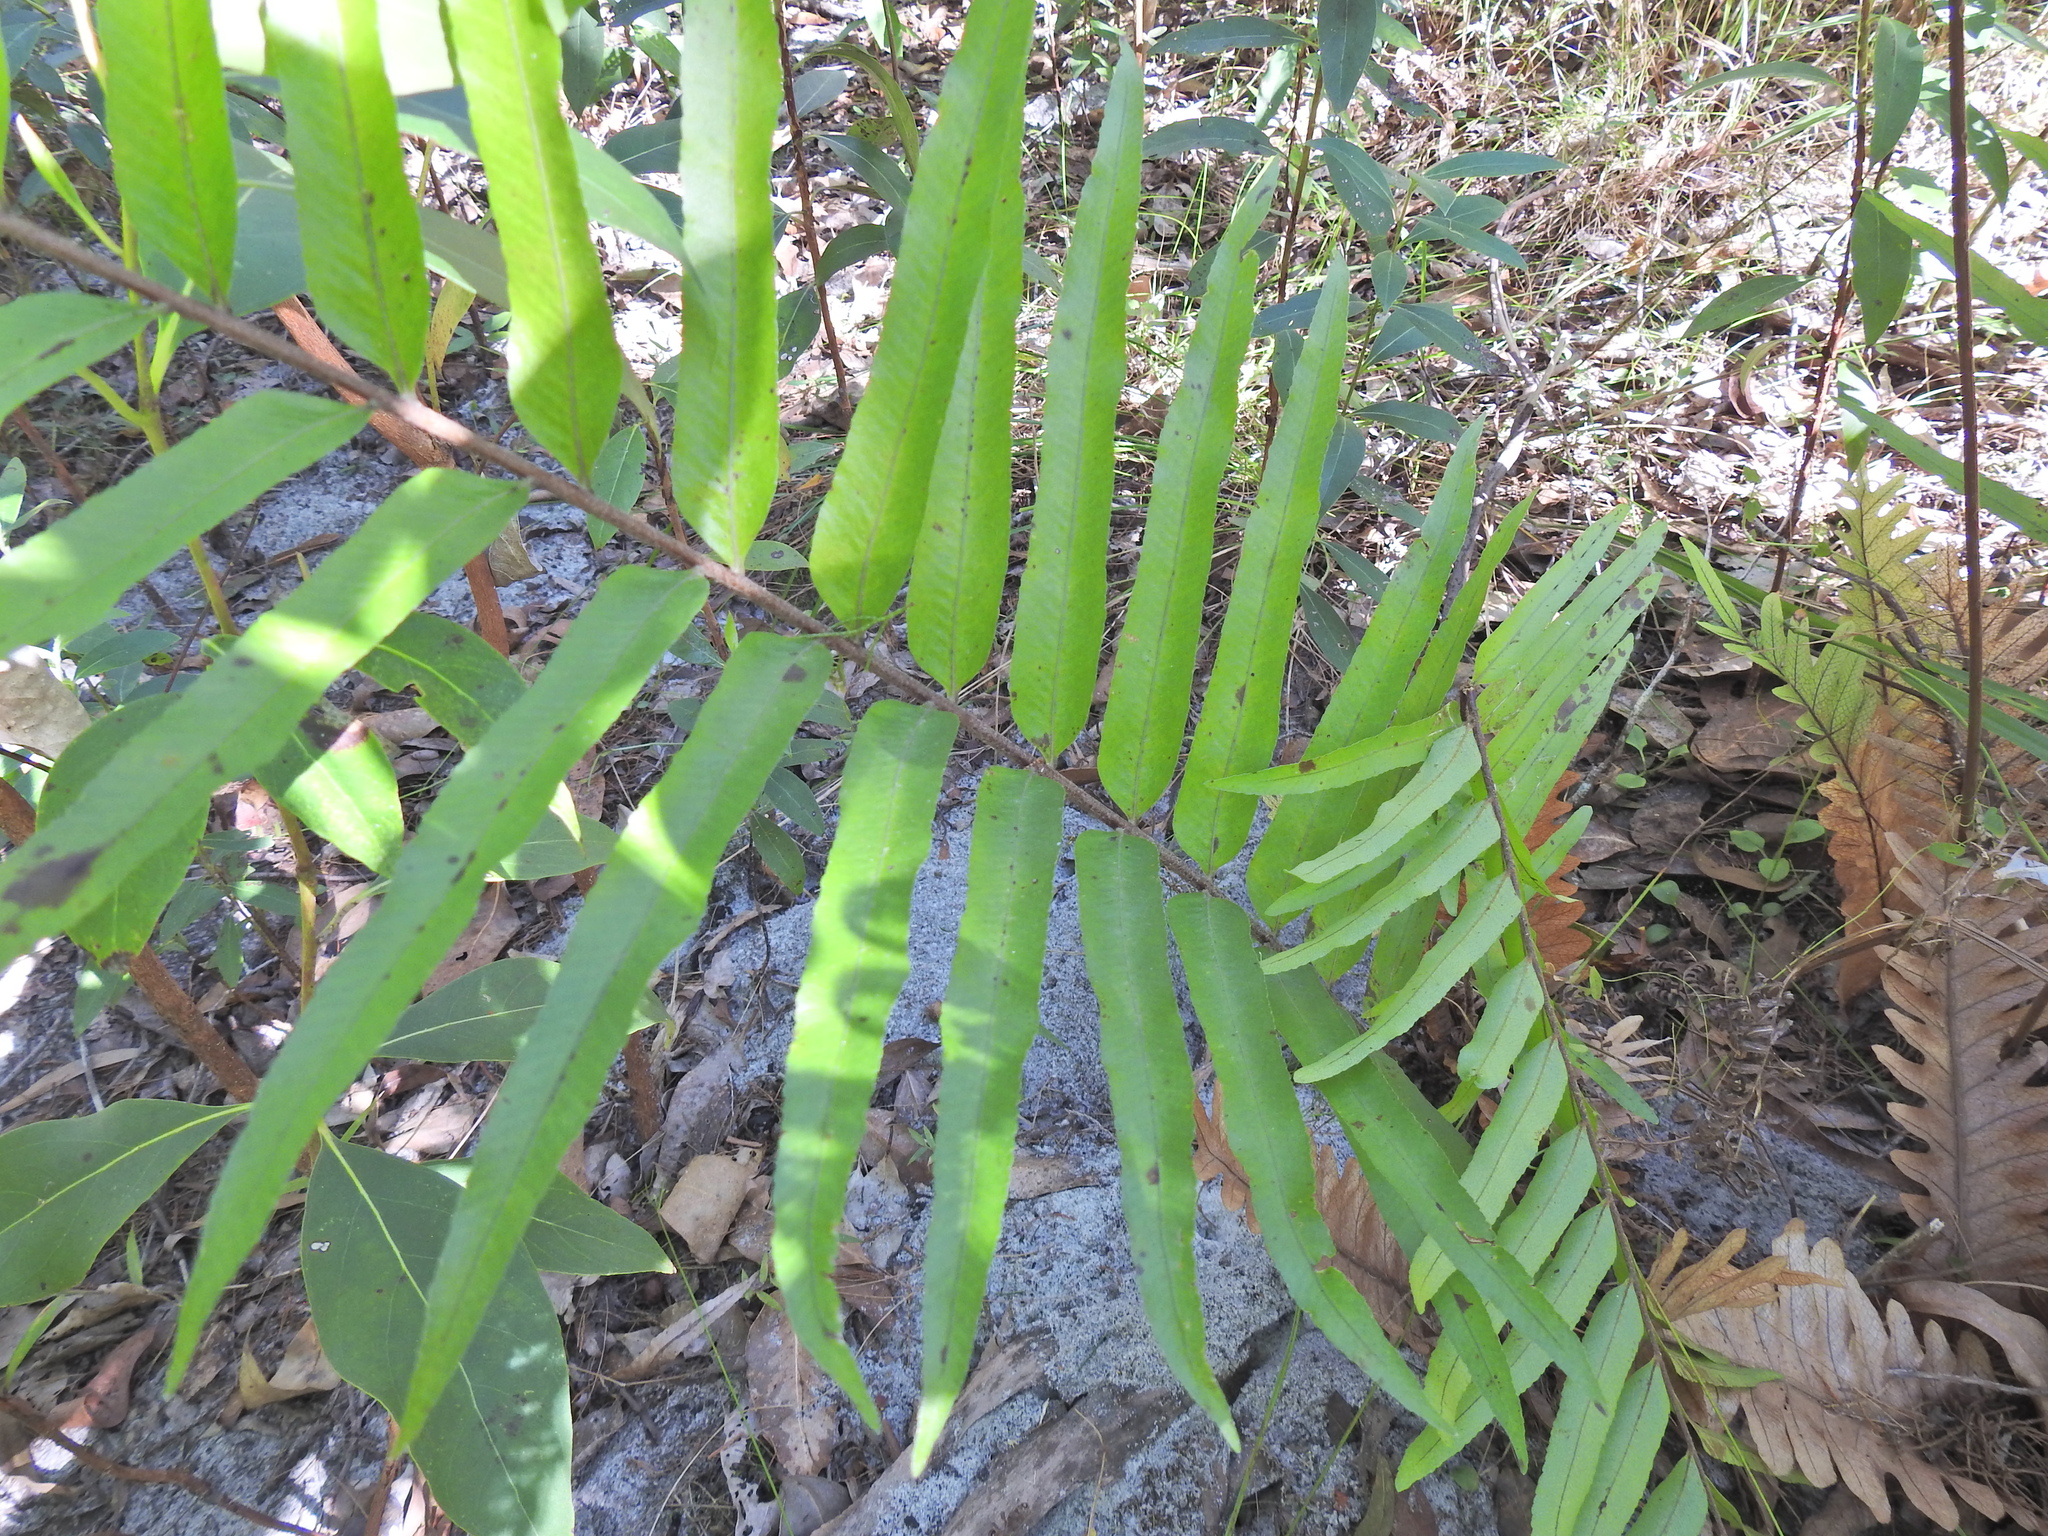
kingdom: Plantae
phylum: Tracheophyta
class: Polypodiopsida
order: Polypodiales
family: Polypodiaceae
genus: Drynaria
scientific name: Drynaria rigidula
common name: Basket fern
